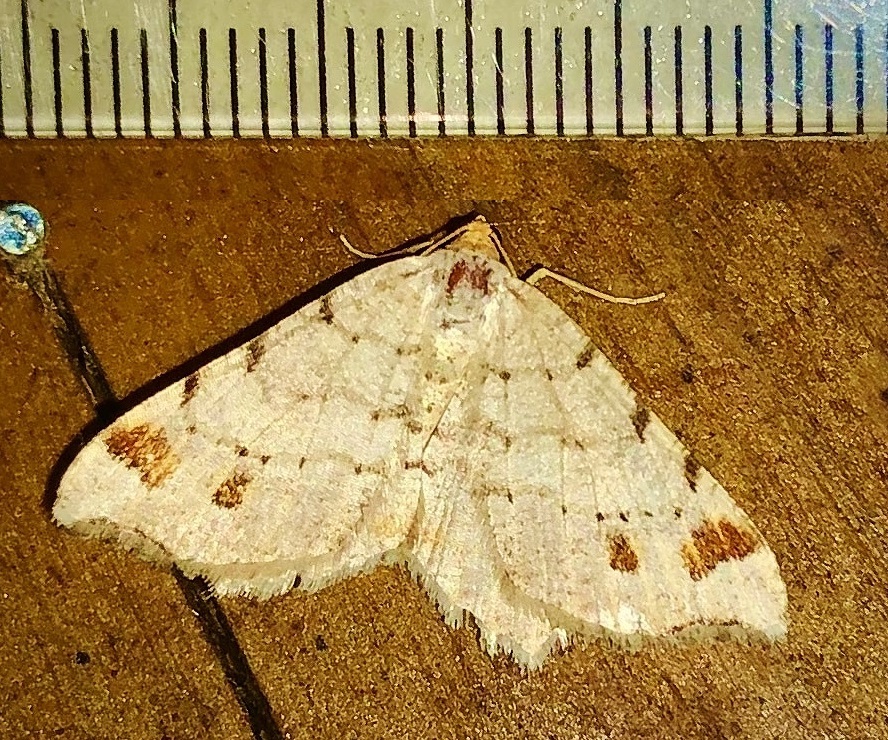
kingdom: Animalia
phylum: Arthropoda
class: Insecta
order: Lepidoptera
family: Geometridae
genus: Macaria
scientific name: Macaria bisignata
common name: Red-headed inchworm
